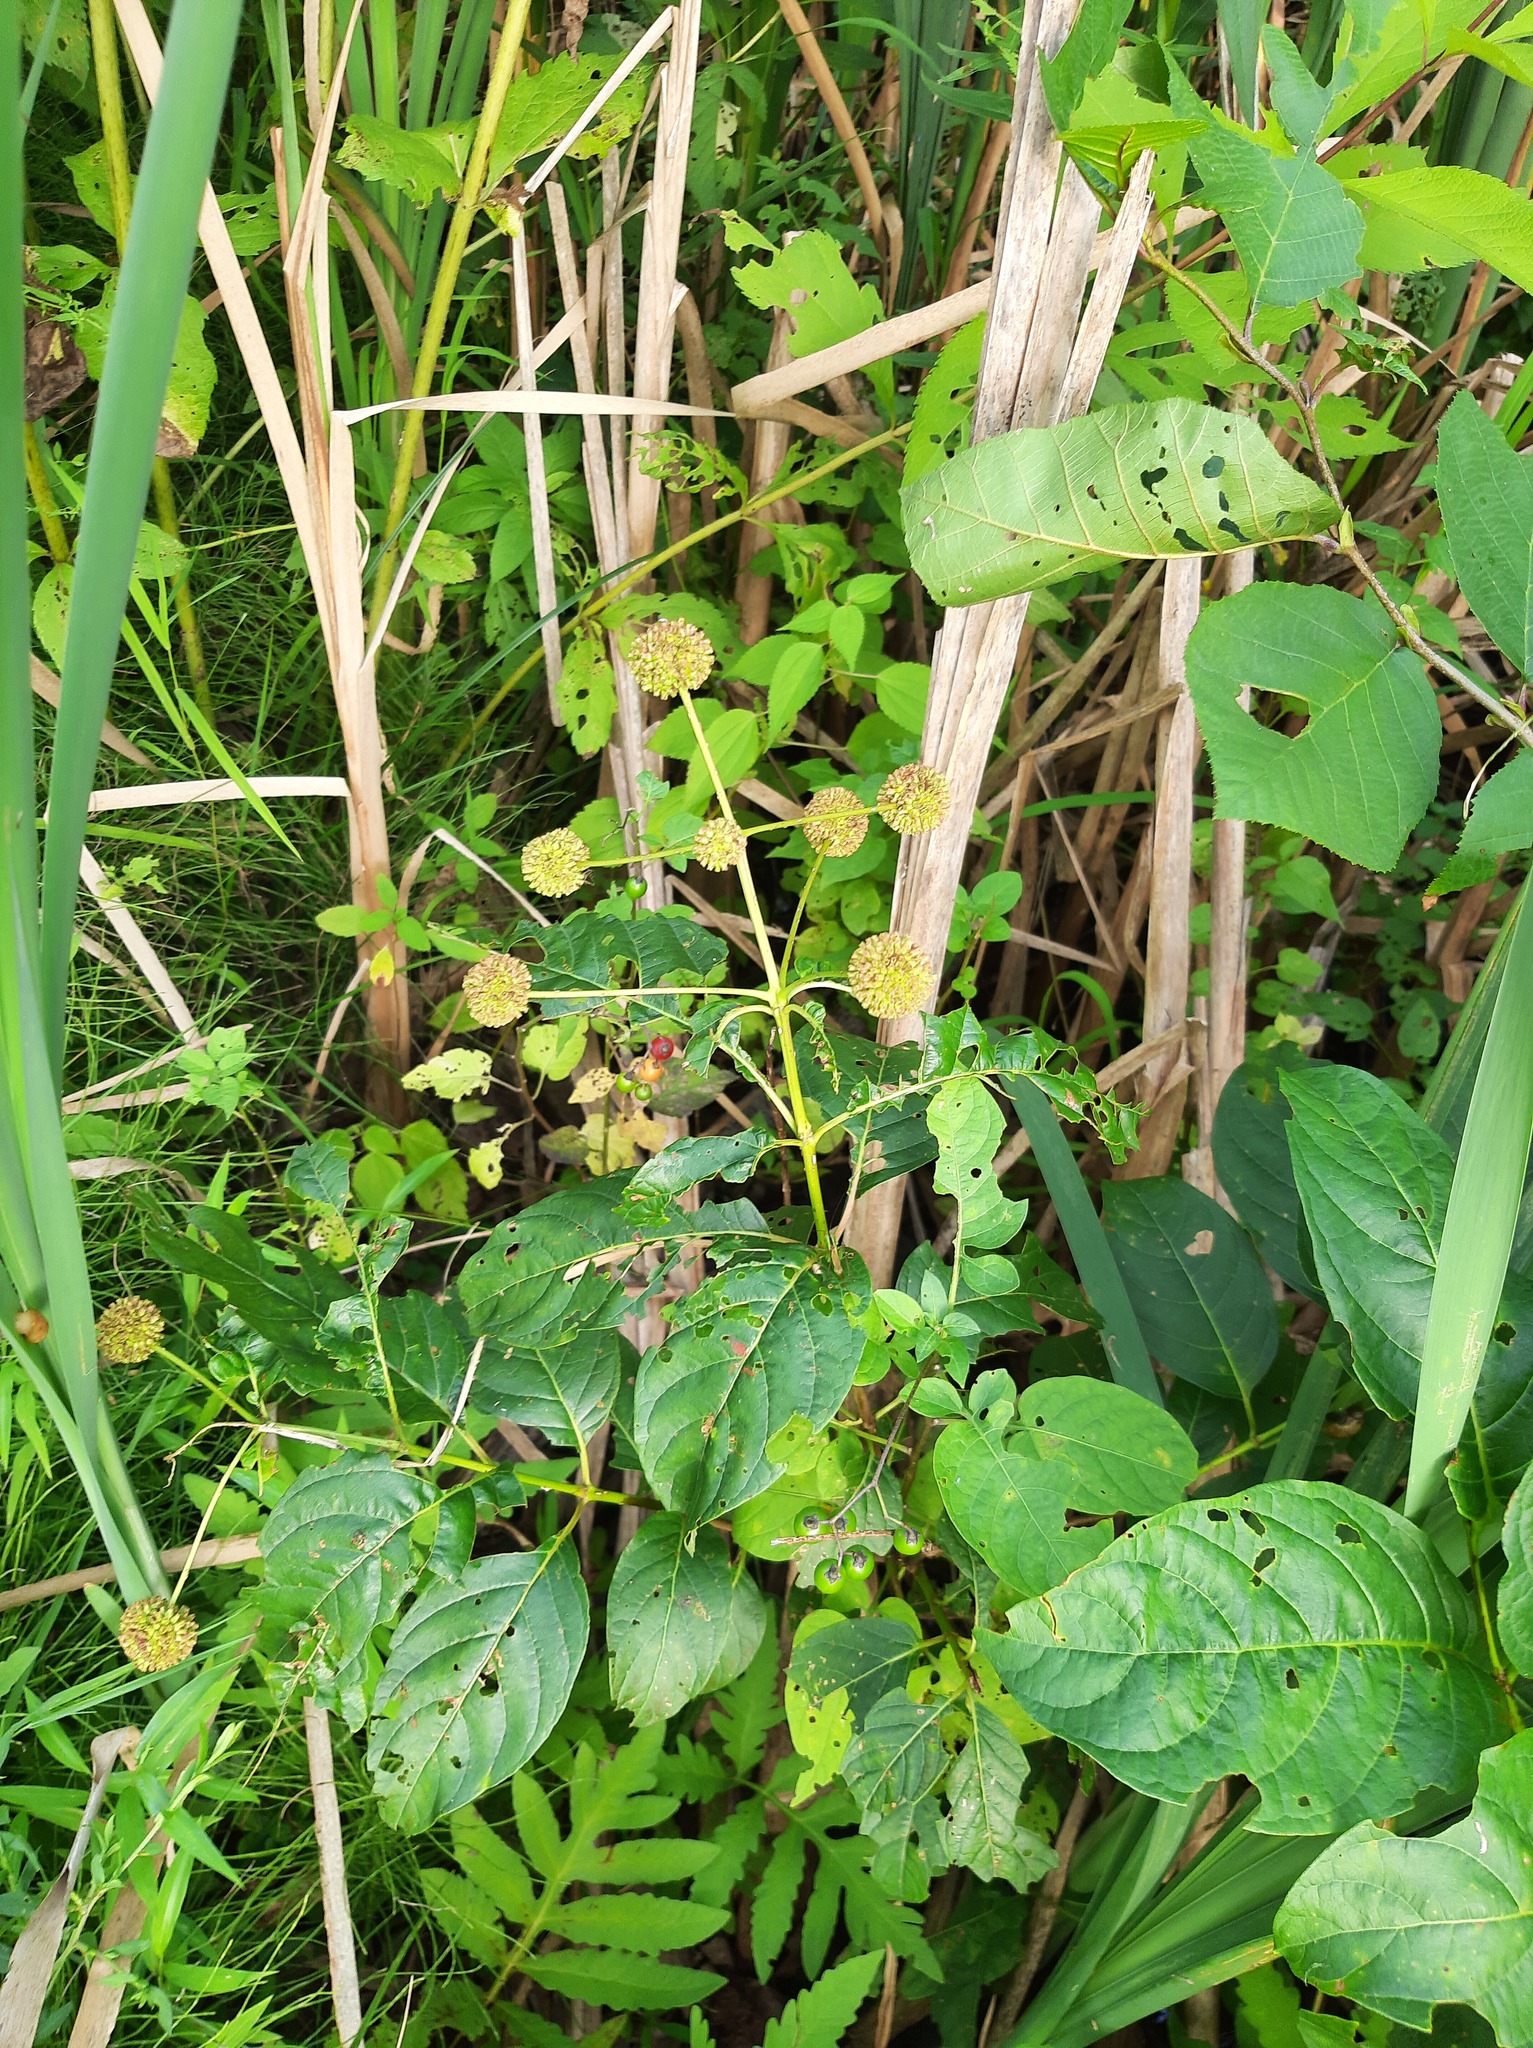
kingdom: Plantae
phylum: Tracheophyta
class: Magnoliopsida
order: Gentianales
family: Rubiaceae
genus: Cephalanthus
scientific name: Cephalanthus occidentalis
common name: Button-willow
